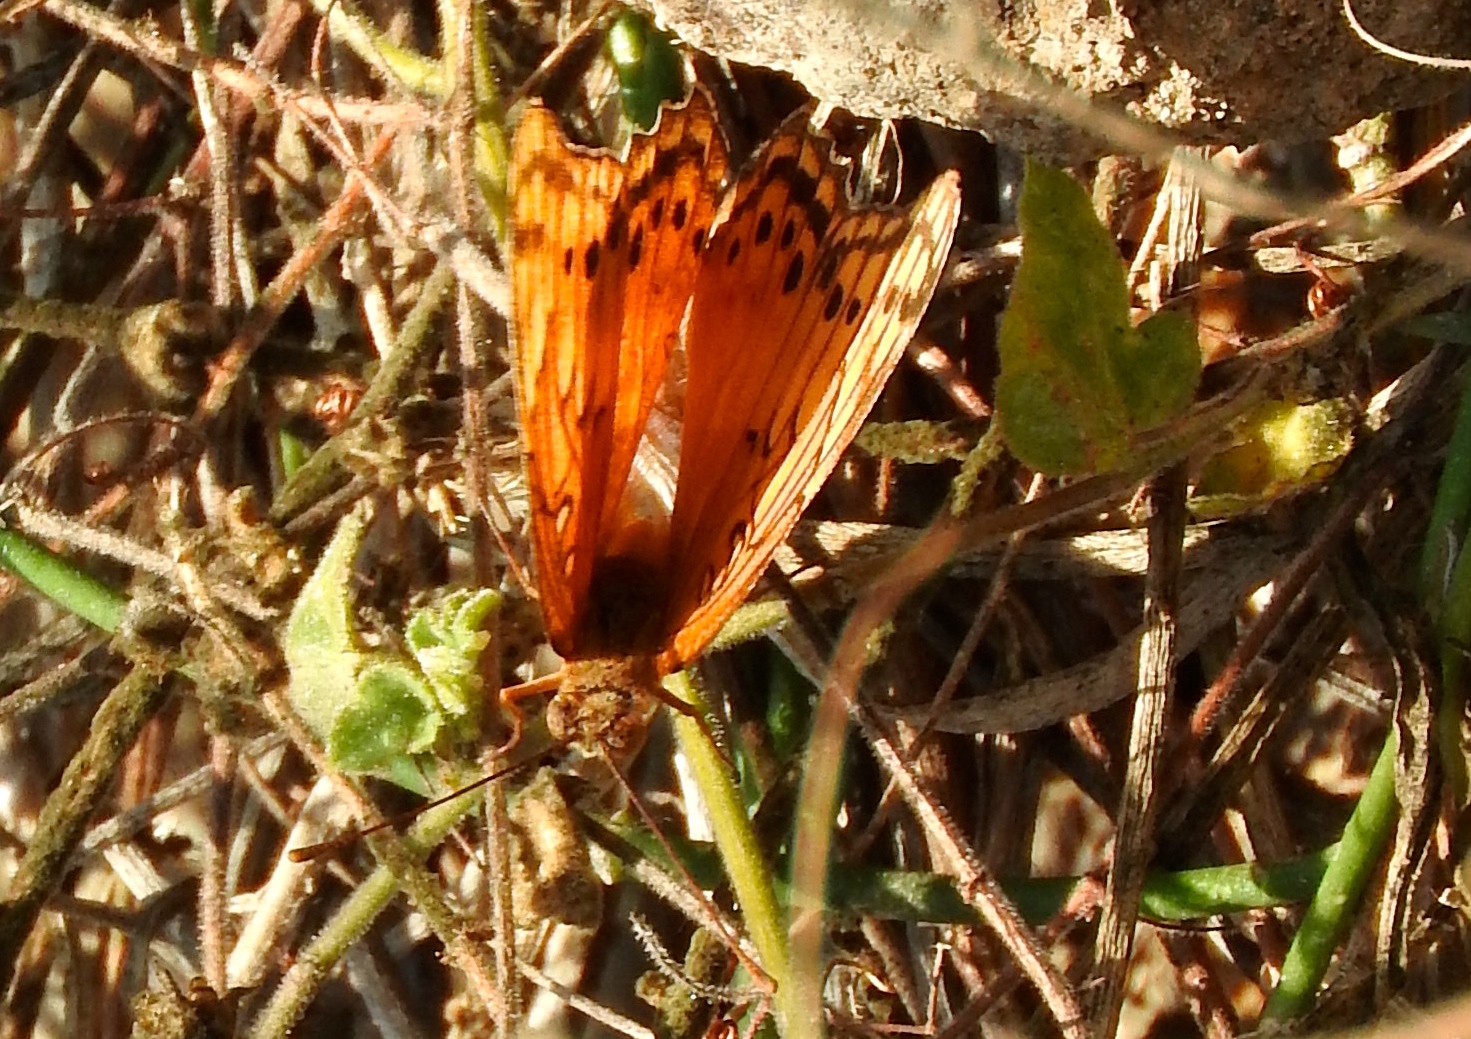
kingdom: Animalia
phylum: Arthropoda
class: Insecta
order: Lepidoptera
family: Nymphalidae
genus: Euptoieta
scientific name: Euptoieta hegesia
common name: Mexican fritillary
